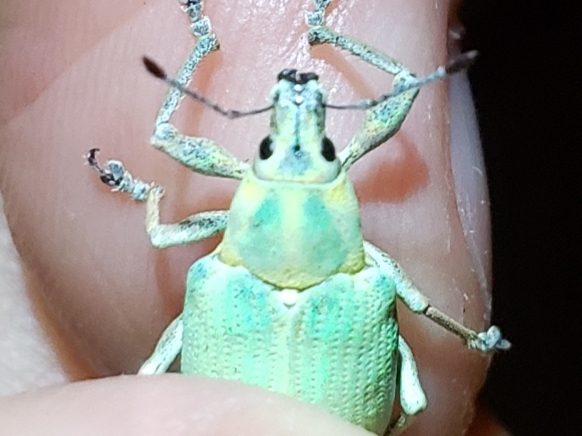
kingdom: Animalia
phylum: Arthropoda
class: Insecta
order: Coleoptera
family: Curculionidae
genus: Pachnaeus
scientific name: Pachnaeus litus
